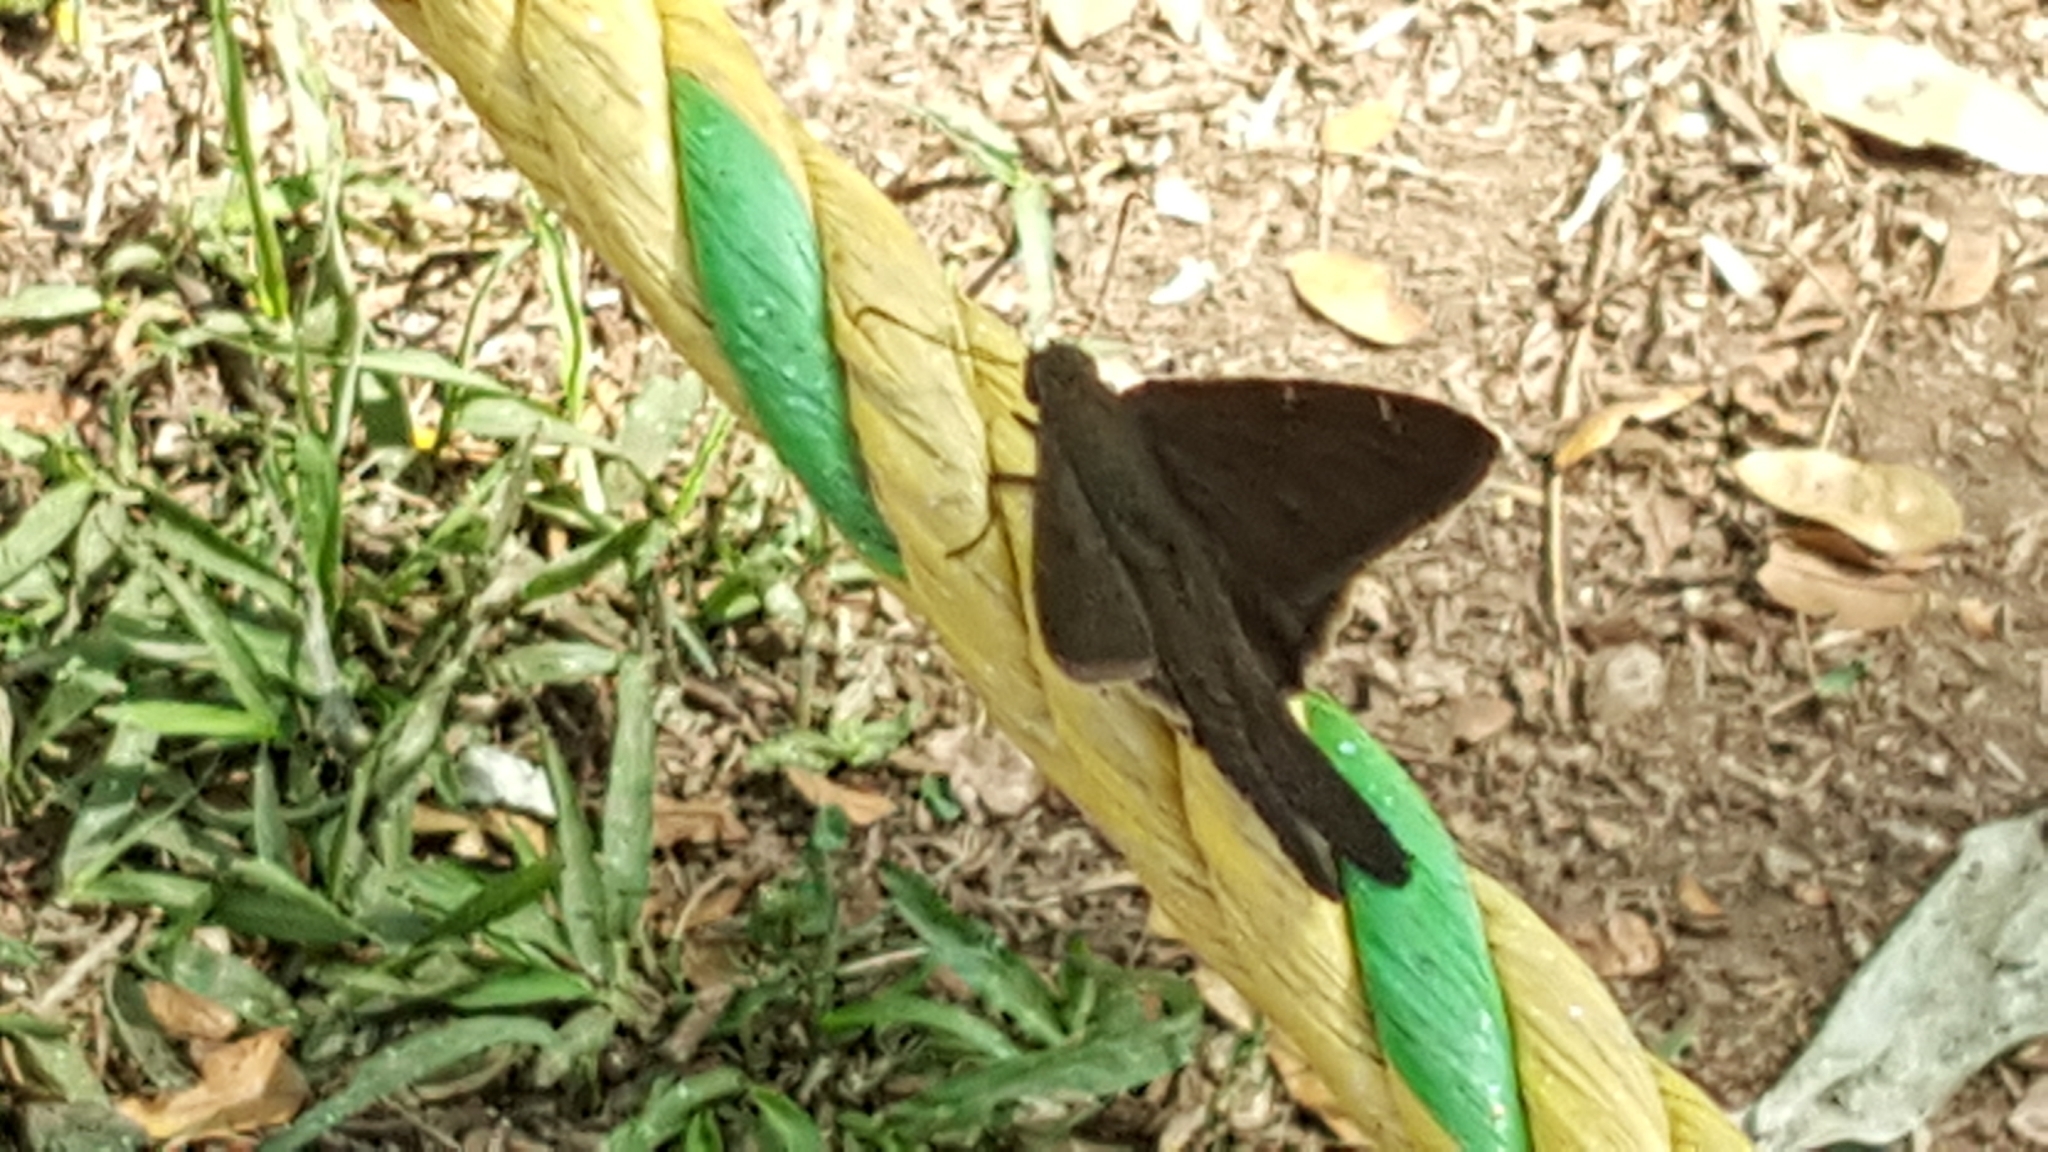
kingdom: Animalia
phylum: Arthropoda
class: Insecta
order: Lepidoptera
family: Hesperiidae
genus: Urbanus
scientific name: Urbanus procne
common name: Brown longtail
